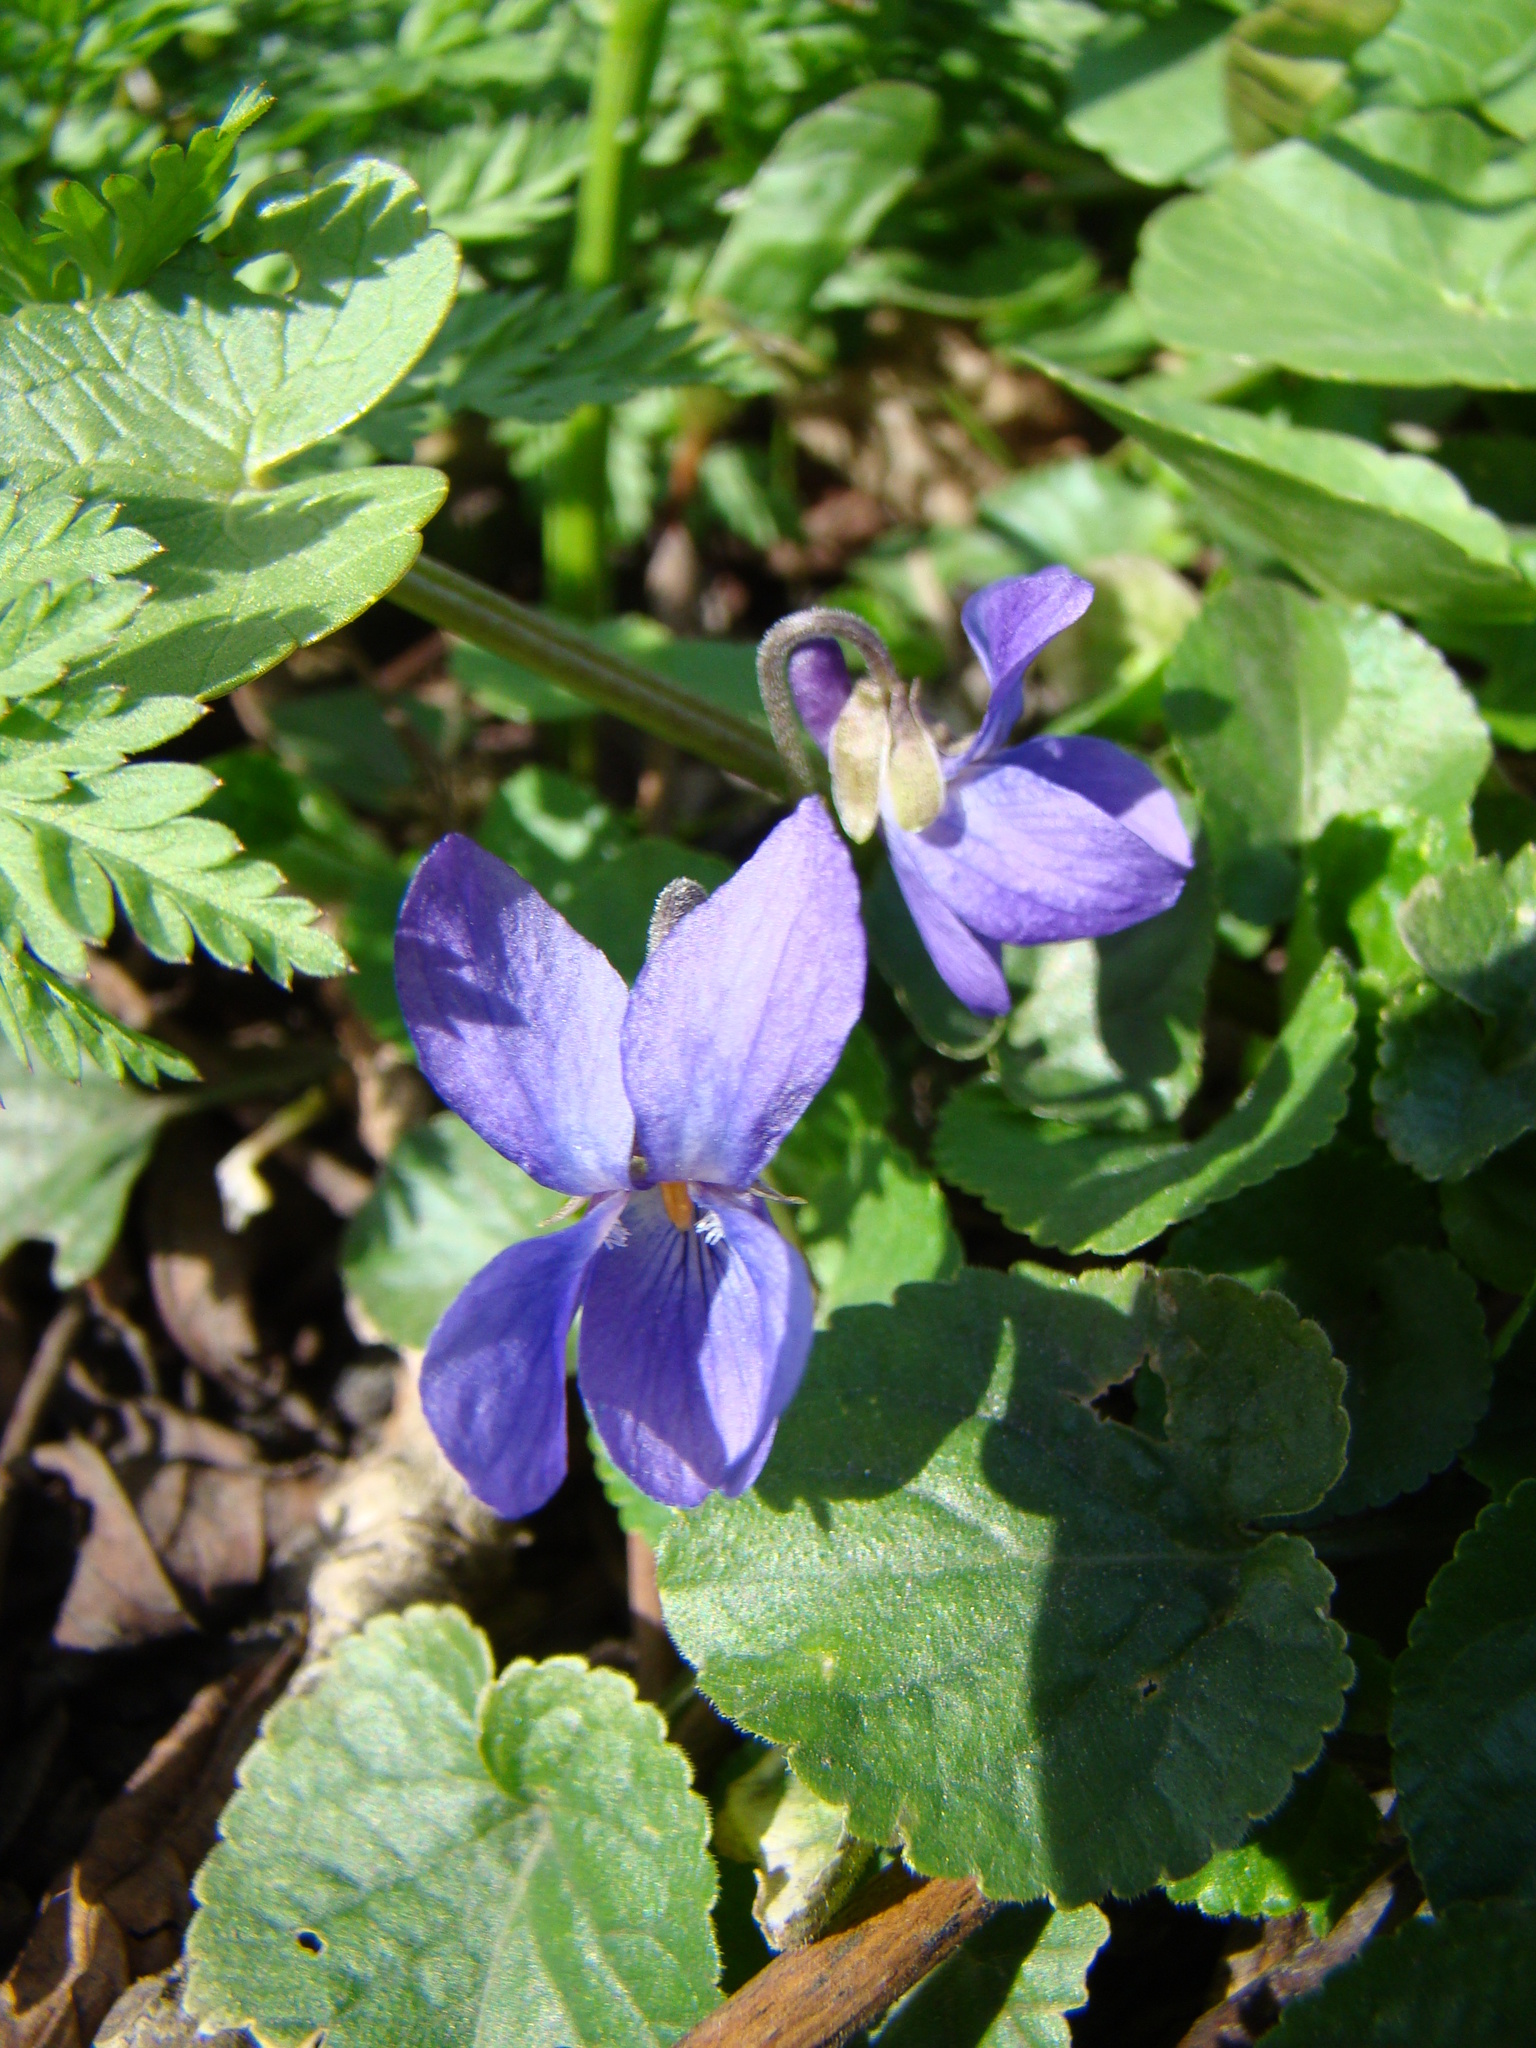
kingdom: Plantae
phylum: Tracheophyta
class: Magnoliopsida
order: Malpighiales
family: Violaceae
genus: Viola
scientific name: Viola odorata
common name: Sweet violet
